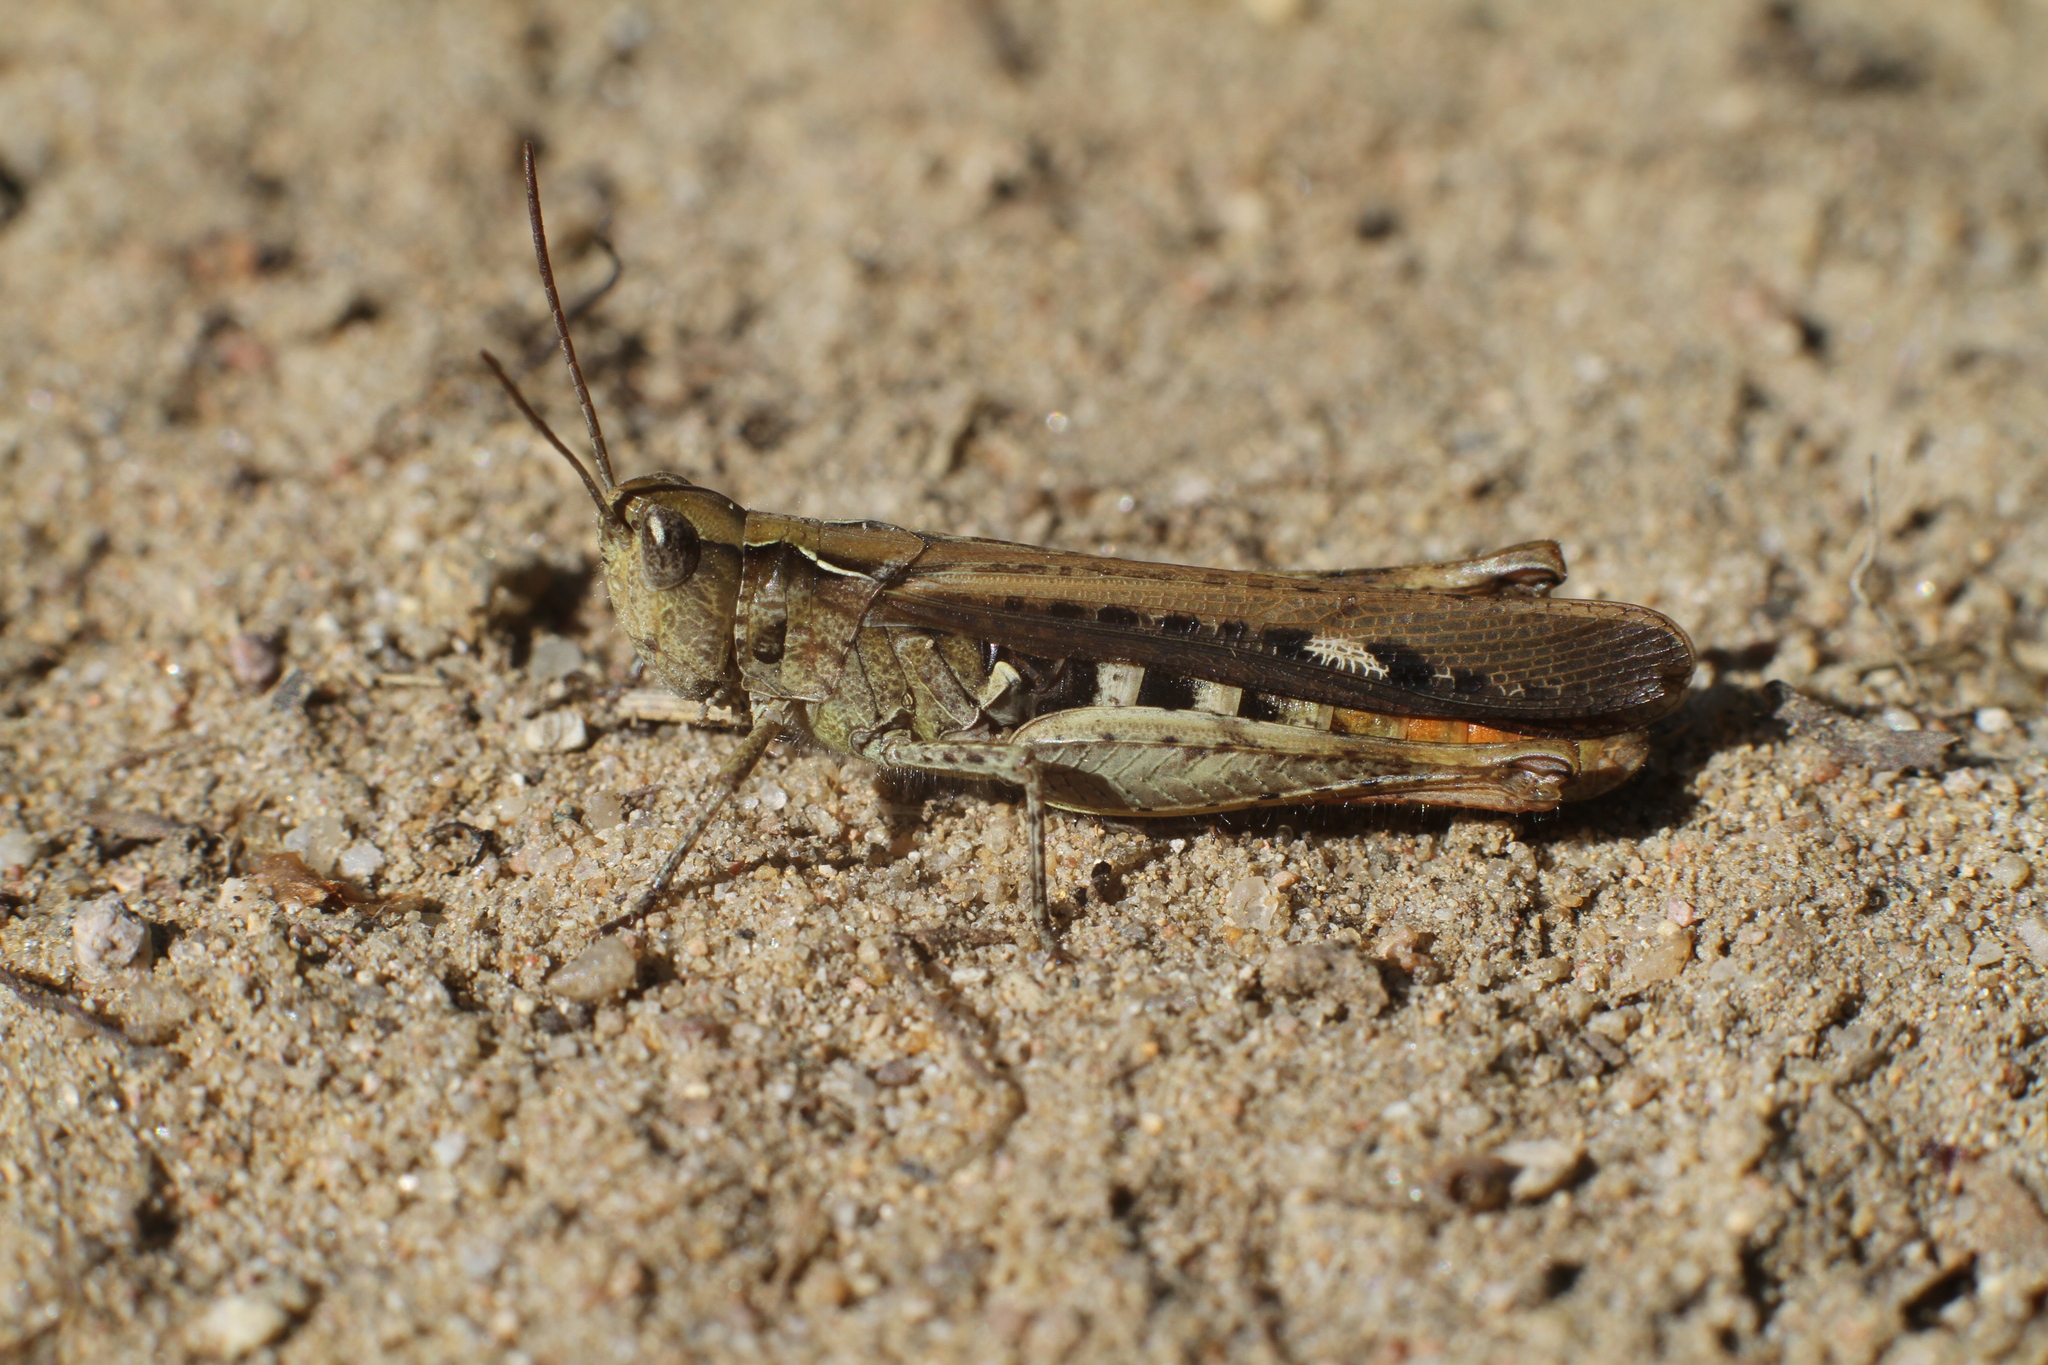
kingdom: Animalia
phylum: Arthropoda
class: Insecta
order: Orthoptera
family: Acrididae
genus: Chorthippus
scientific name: Chorthippus brunneus
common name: Field grasshopper
